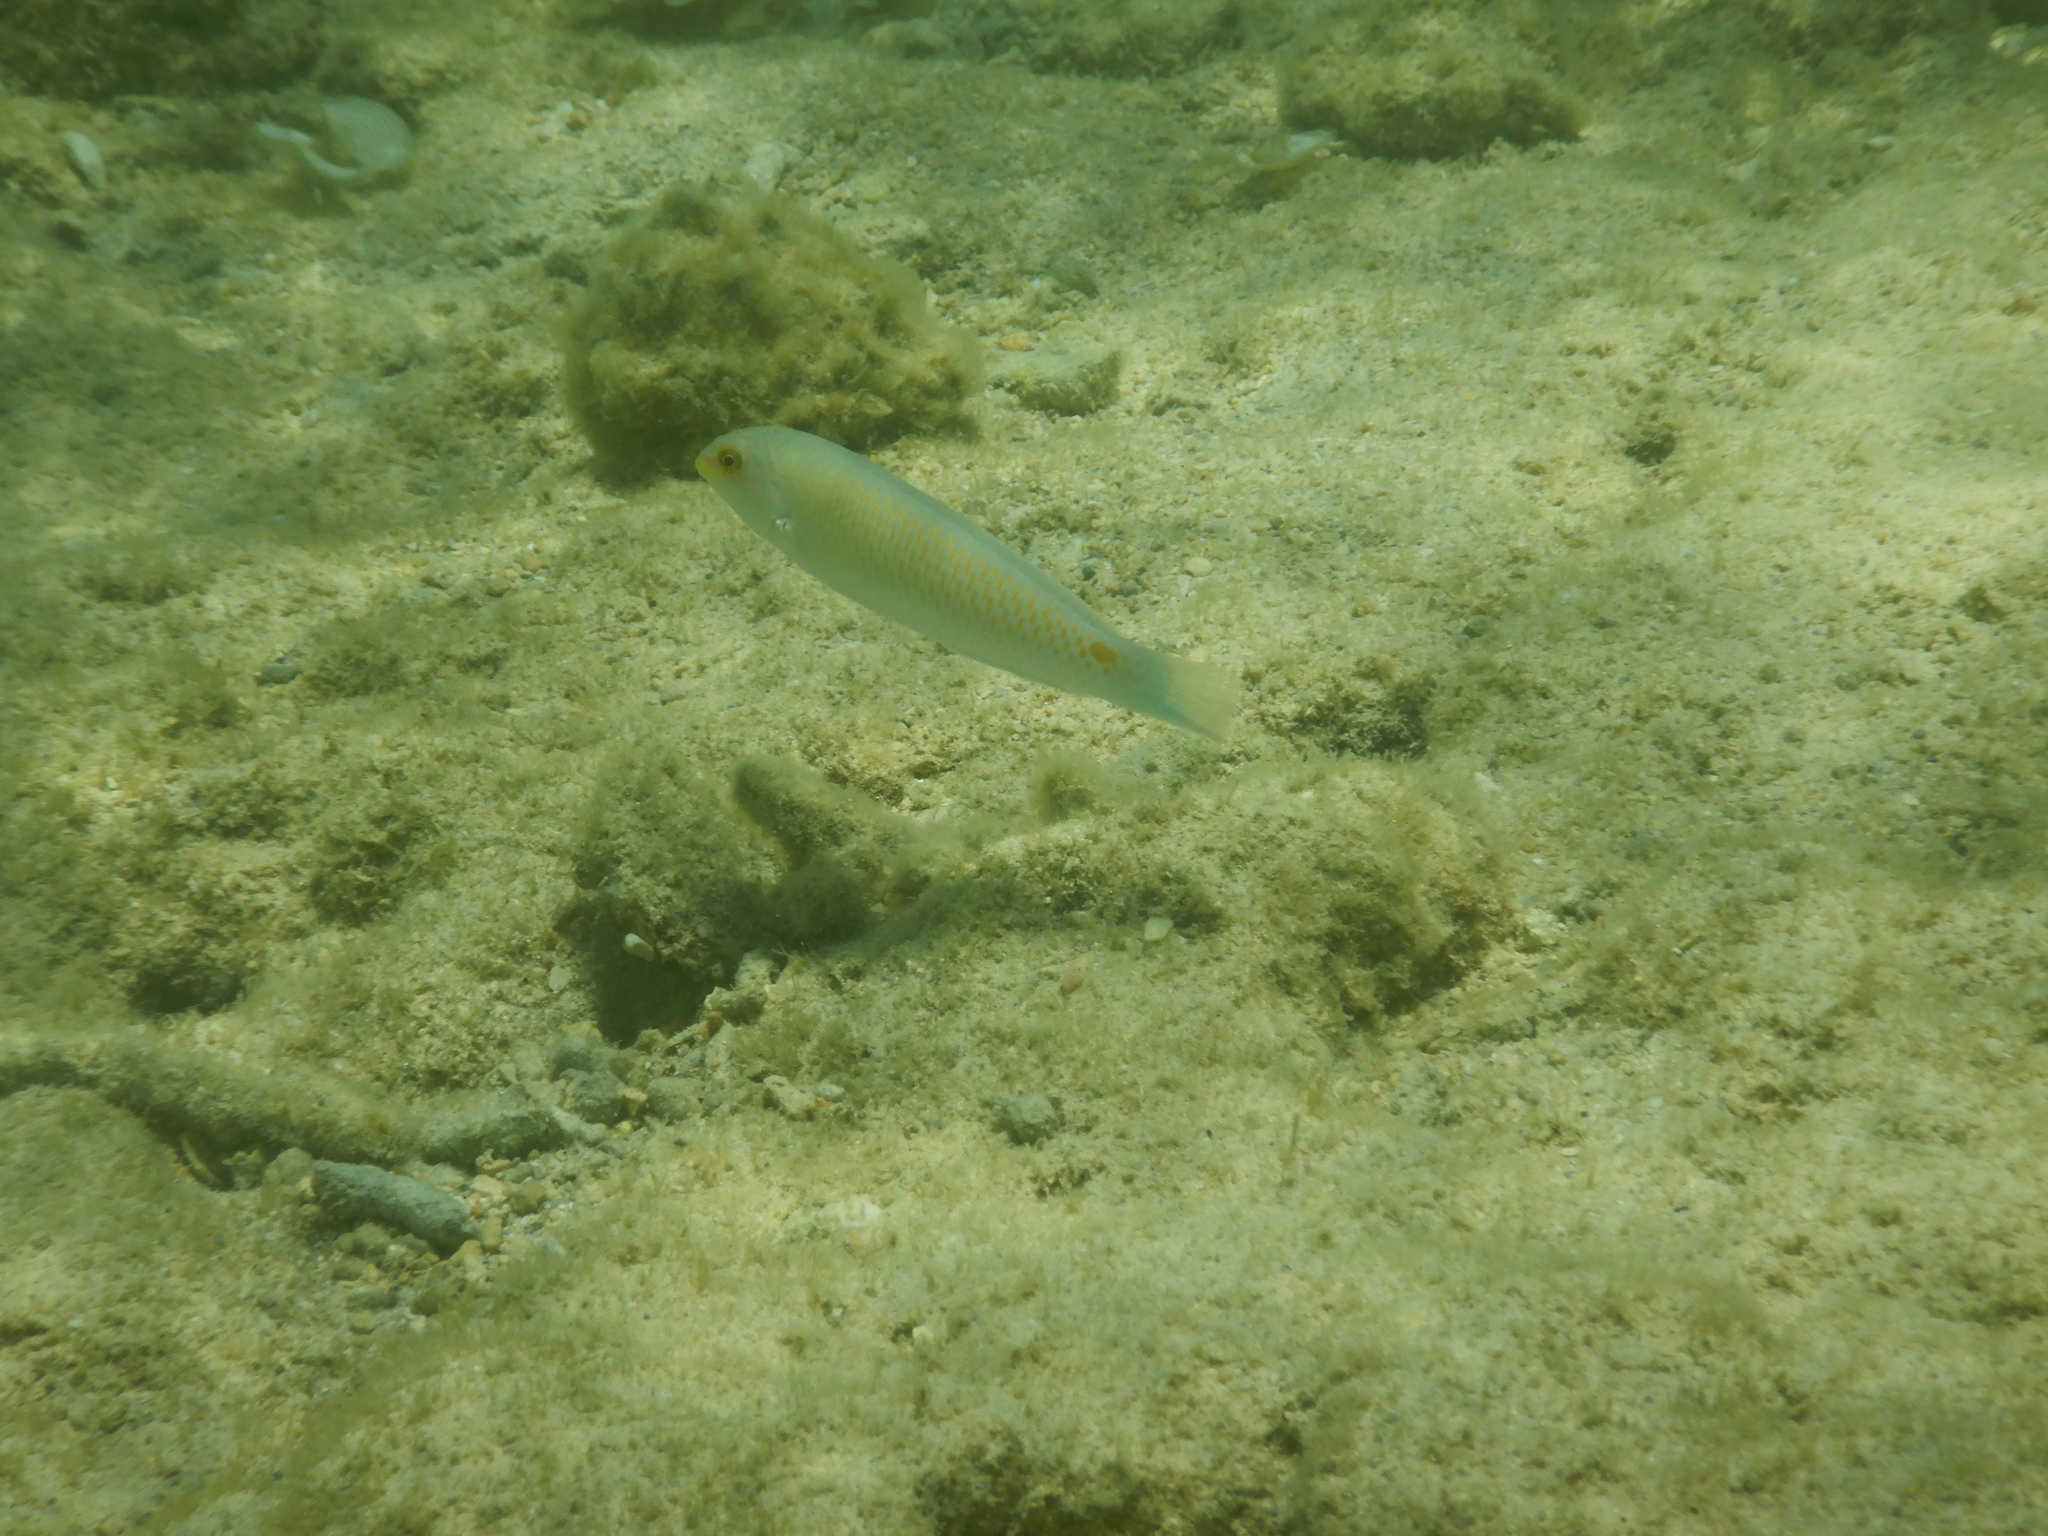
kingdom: Animalia
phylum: Chordata
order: Perciformes
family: Labridae
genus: Halichoeres
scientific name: Halichoeres trimaculatus
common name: Three-spot wrasse
